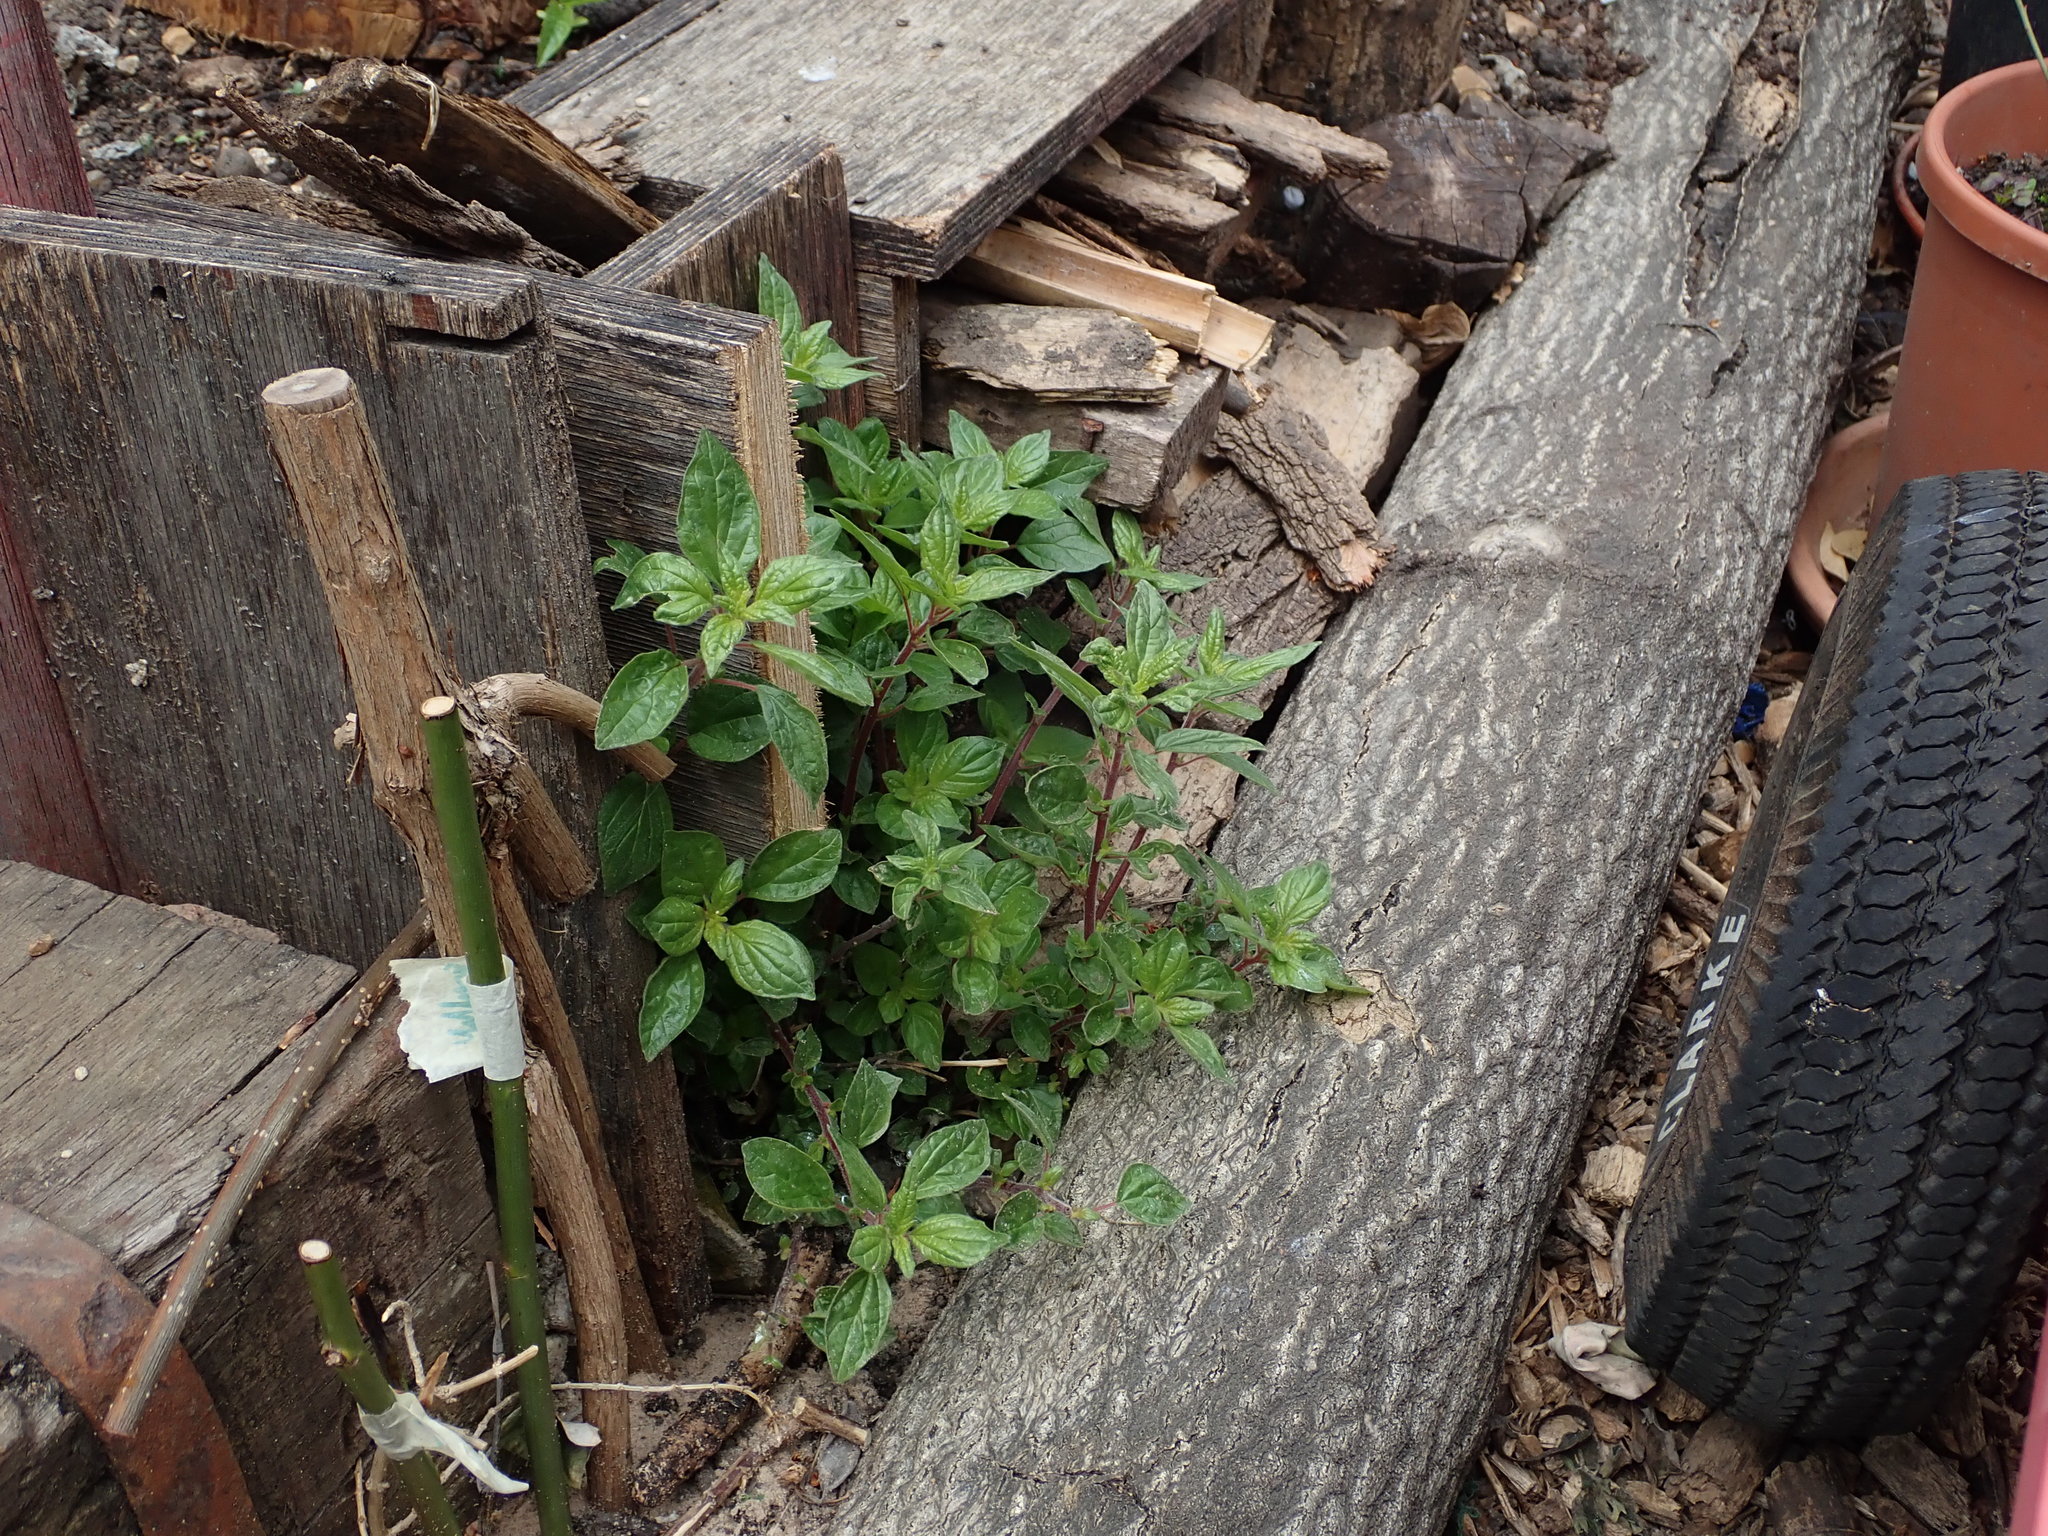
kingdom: Plantae
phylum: Tracheophyta
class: Magnoliopsida
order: Rosales
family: Urticaceae
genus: Parietaria
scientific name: Parietaria judaica
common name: Pellitory-of-the-wall
